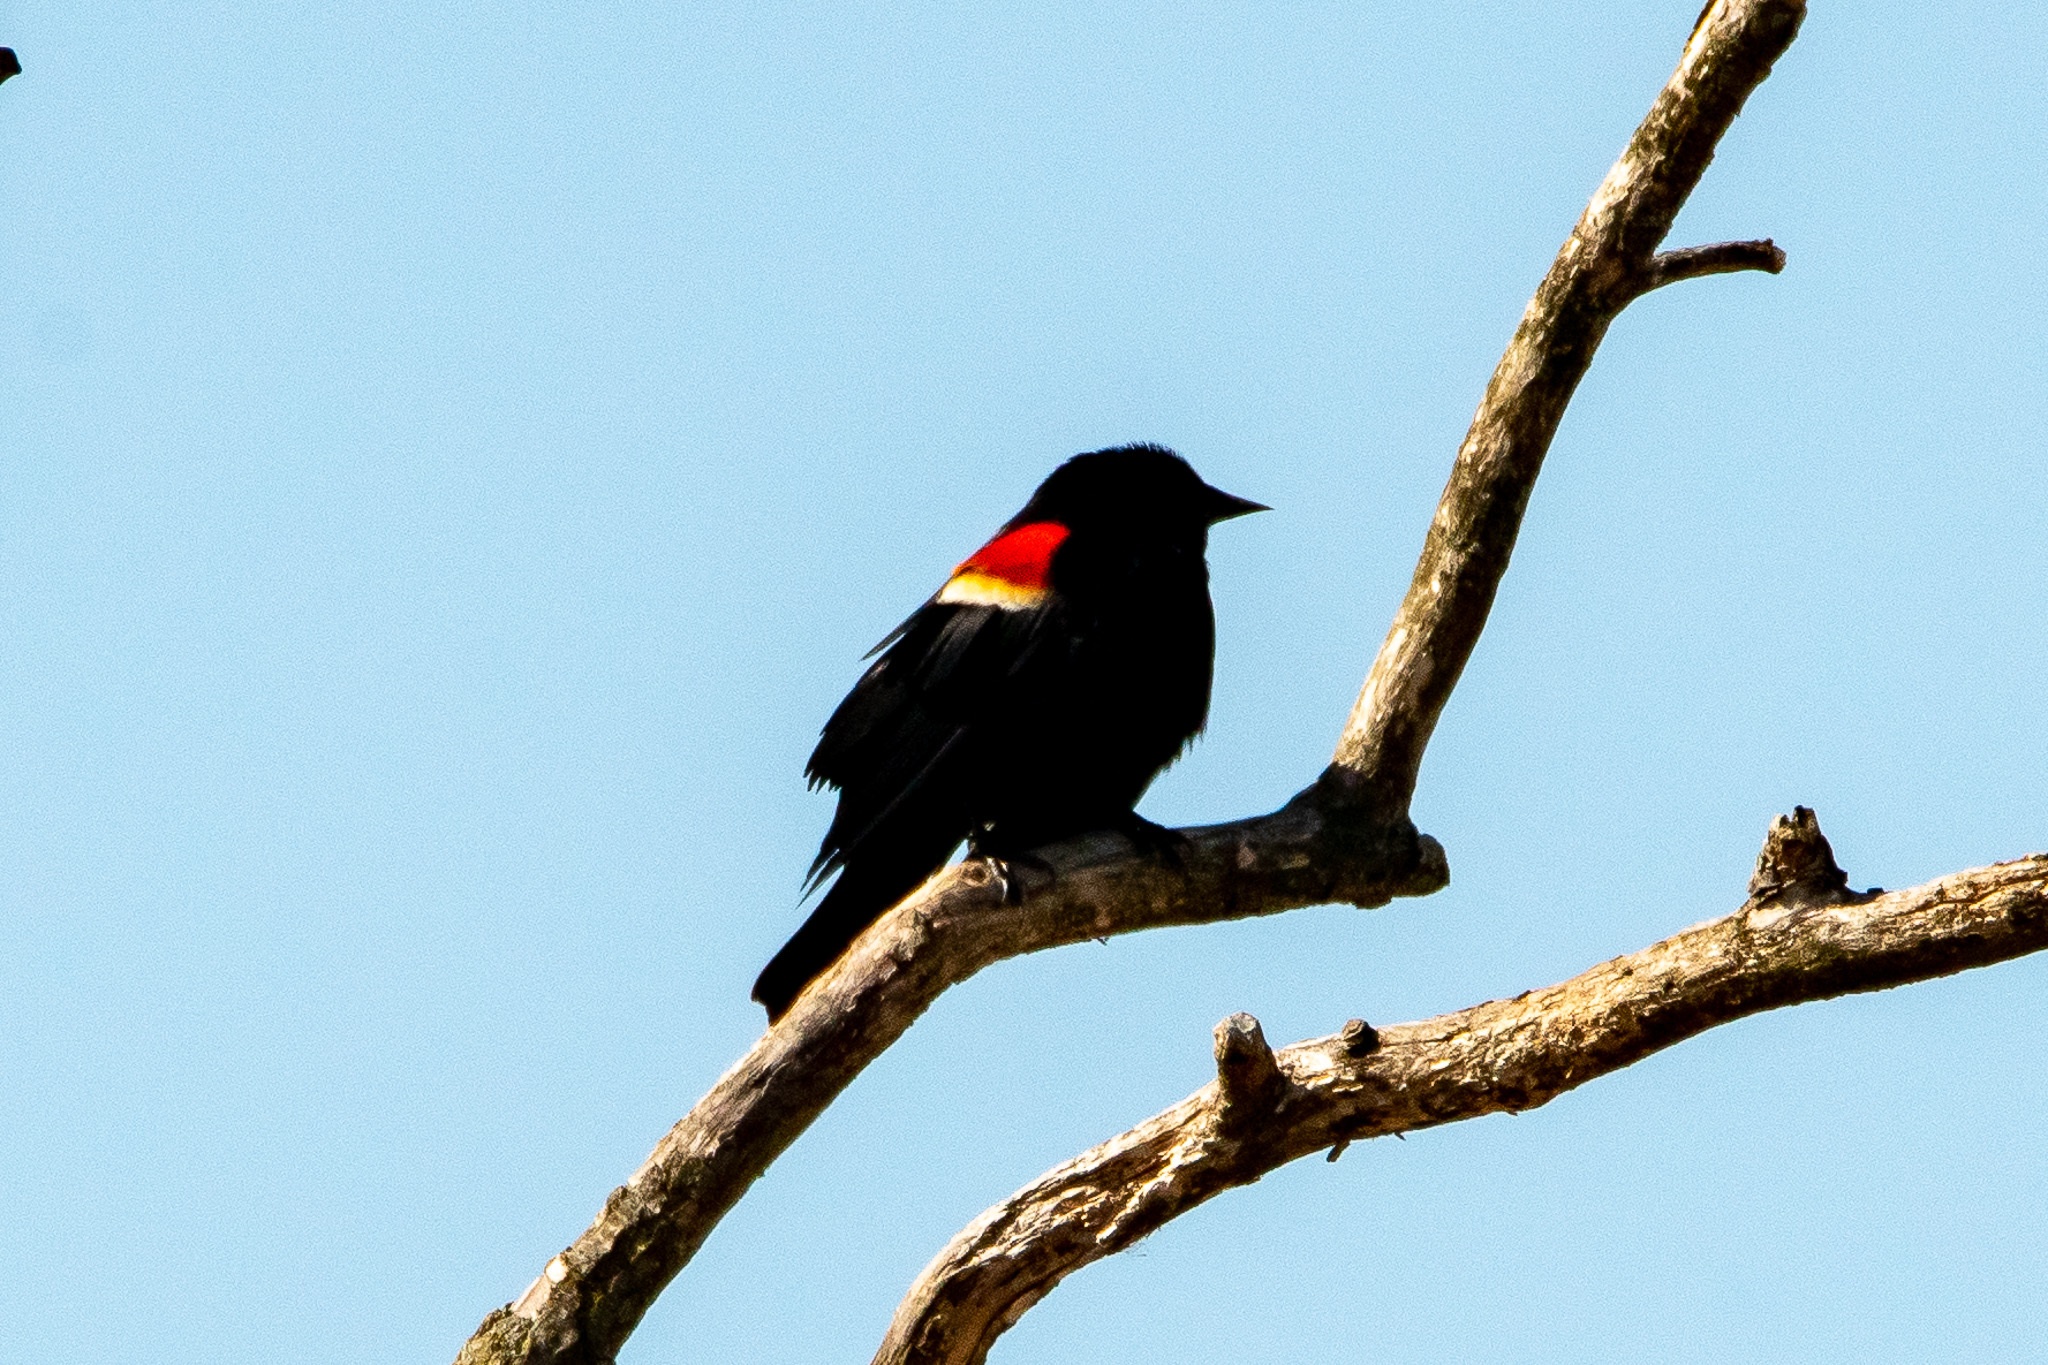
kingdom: Animalia
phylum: Chordata
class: Aves
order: Passeriformes
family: Icteridae
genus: Agelaius
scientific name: Agelaius phoeniceus
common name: Red-winged blackbird
